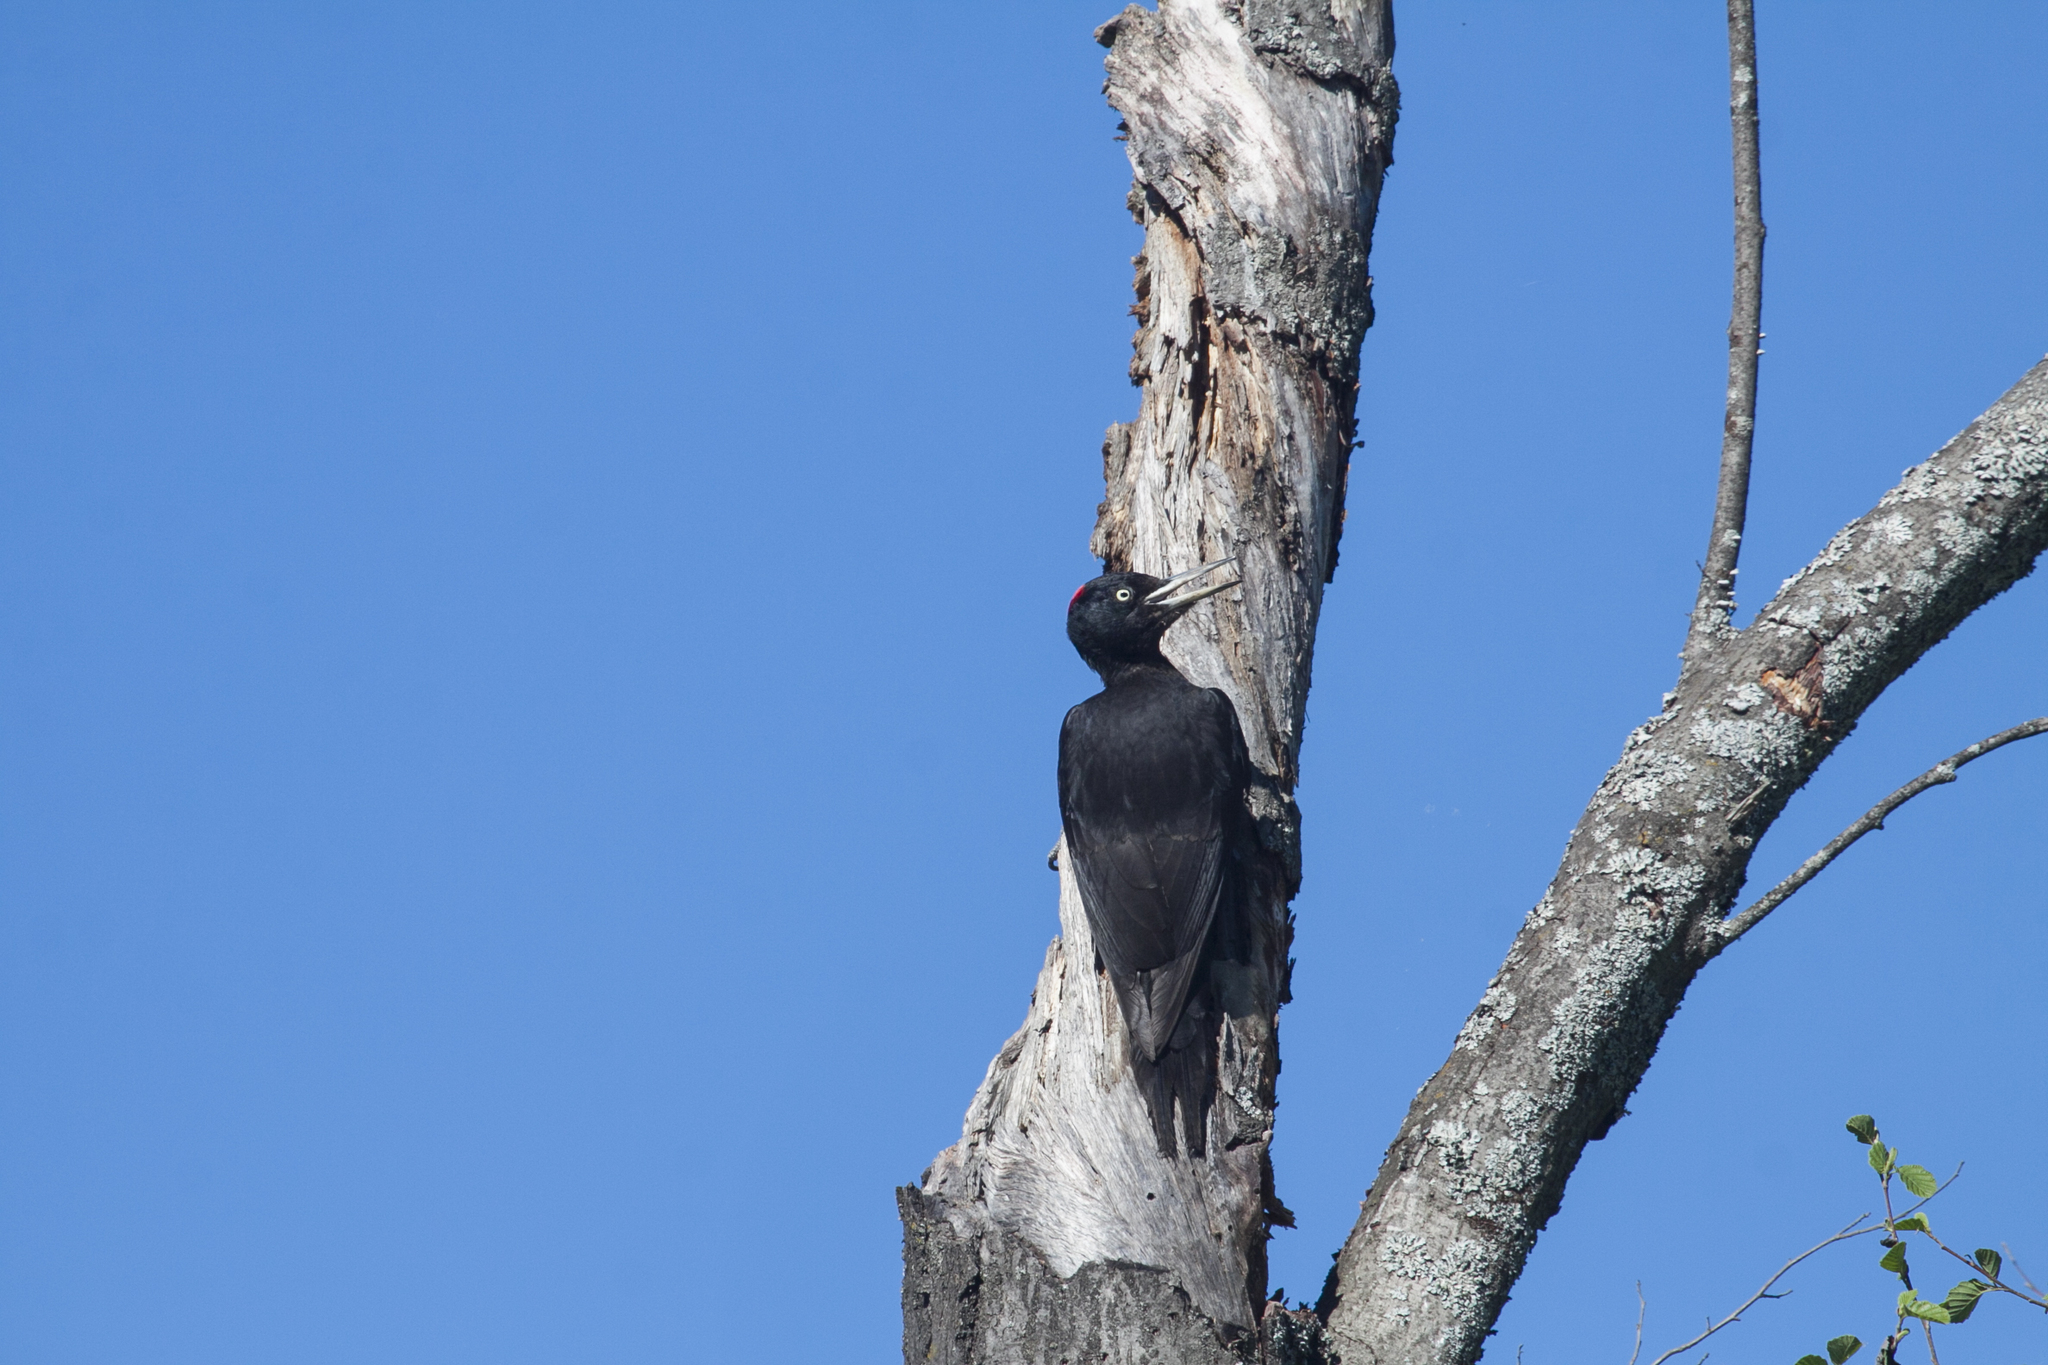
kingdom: Animalia
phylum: Chordata
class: Aves
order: Piciformes
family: Picidae
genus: Dryocopus
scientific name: Dryocopus martius
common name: Black woodpecker
